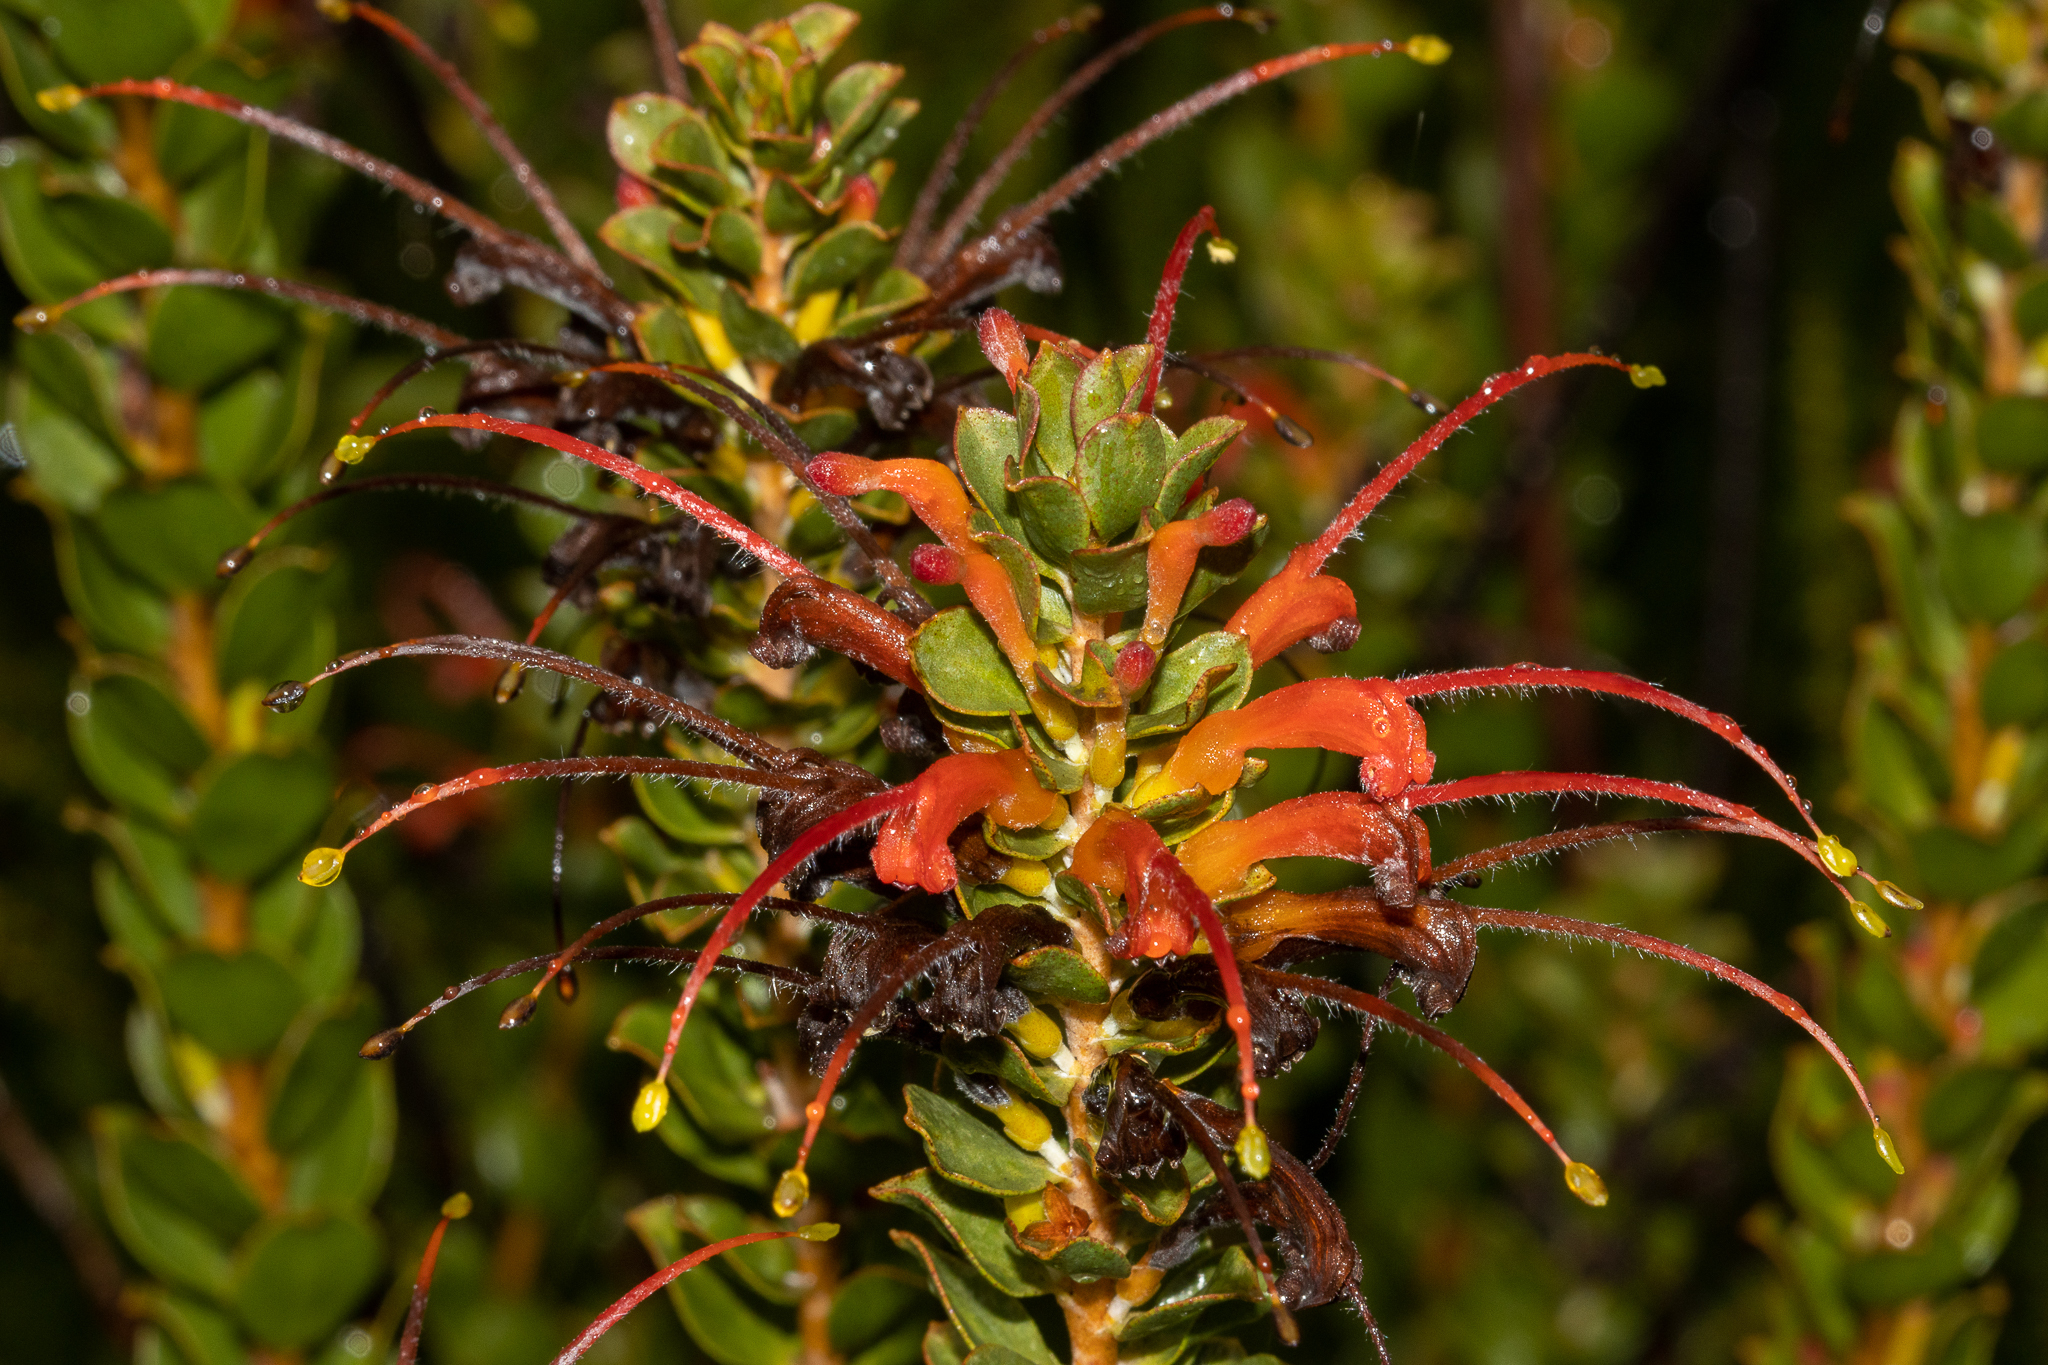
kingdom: Plantae
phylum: Tracheophyta
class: Magnoliopsida
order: Proteales
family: Proteaceae
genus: Adenanthos
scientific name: Adenanthos obovatus
